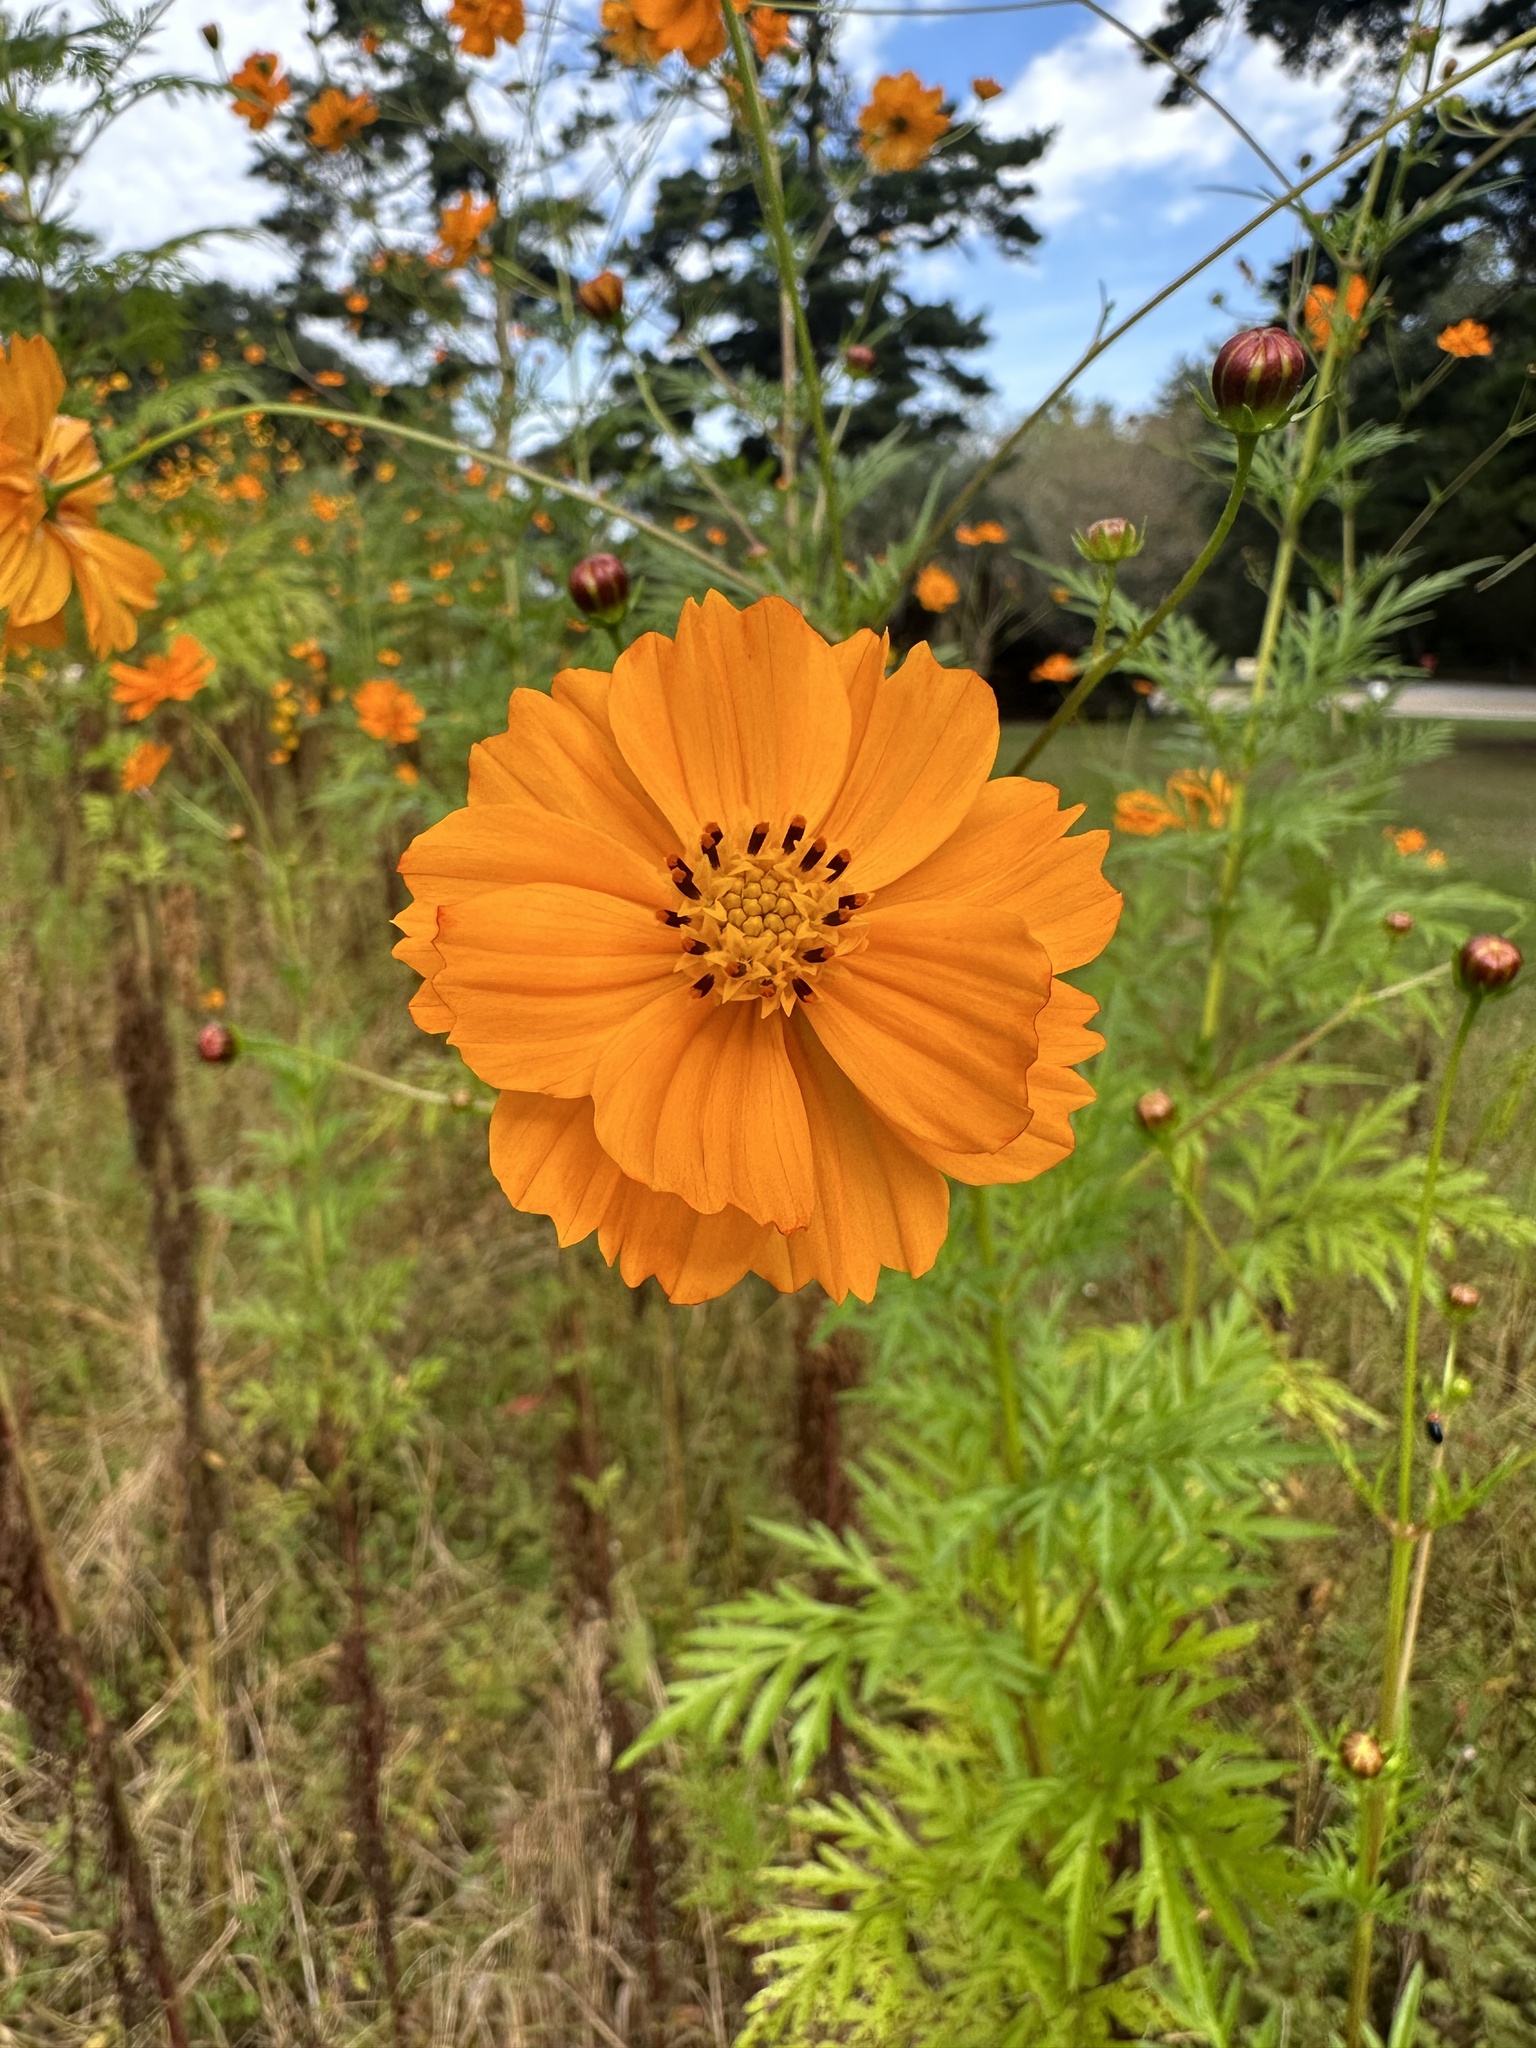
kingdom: Plantae
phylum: Tracheophyta
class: Magnoliopsida
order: Asterales
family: Asteraceae
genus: Cosmos
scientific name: Cosmos sulphureus
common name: Sulphur cosmos
